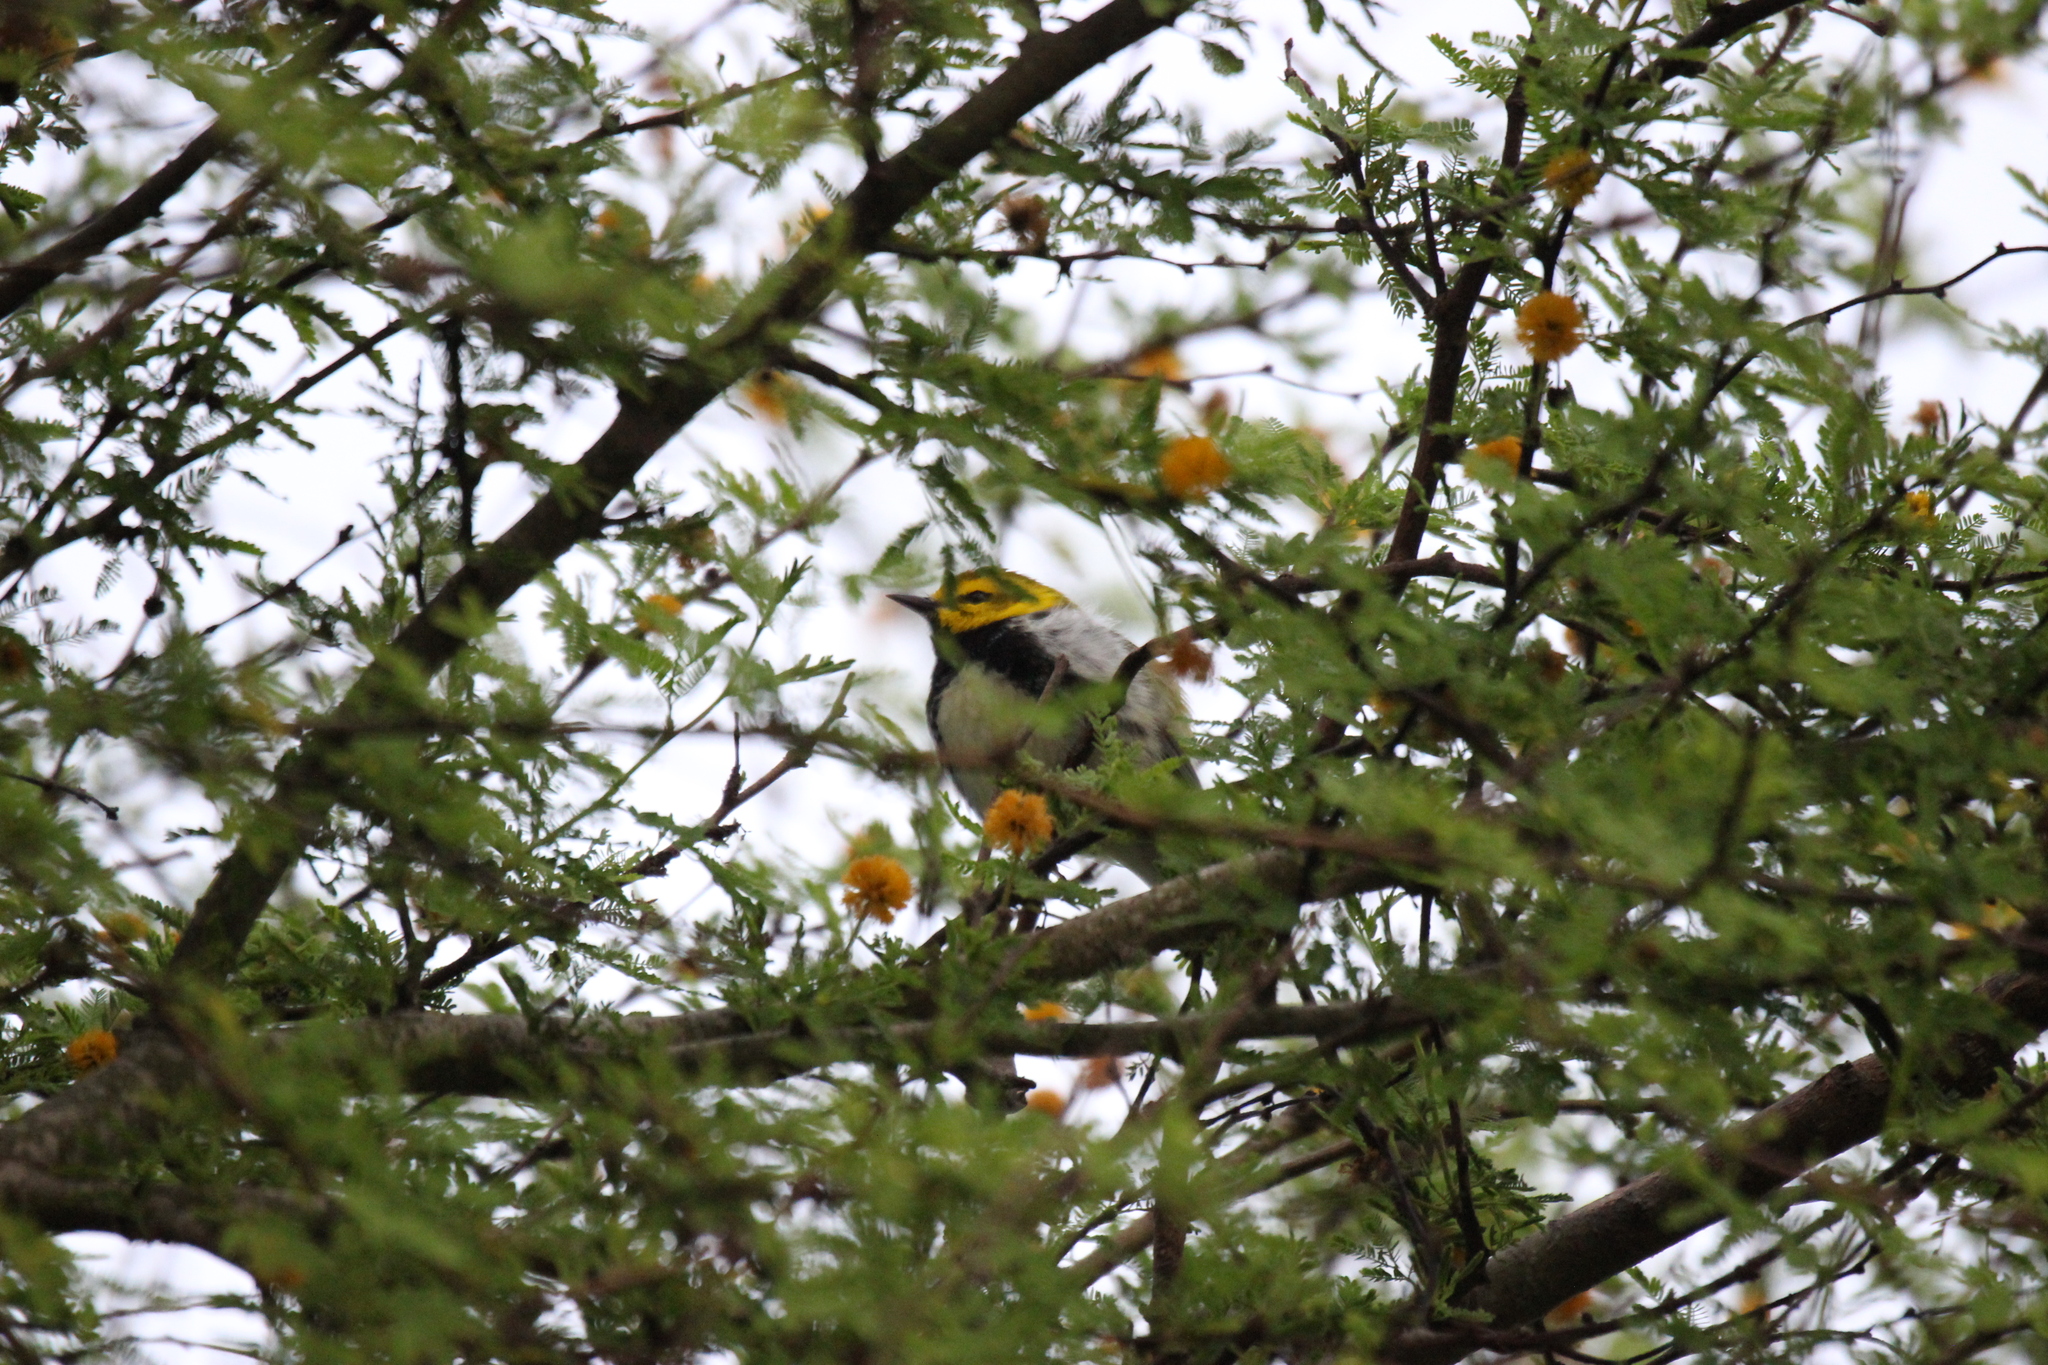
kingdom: Animalia
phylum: Chordata
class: Aves
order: Passeriformes
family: Parulidae
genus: Setophaga
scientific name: Setophaga virens
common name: Black-throated green warbler
